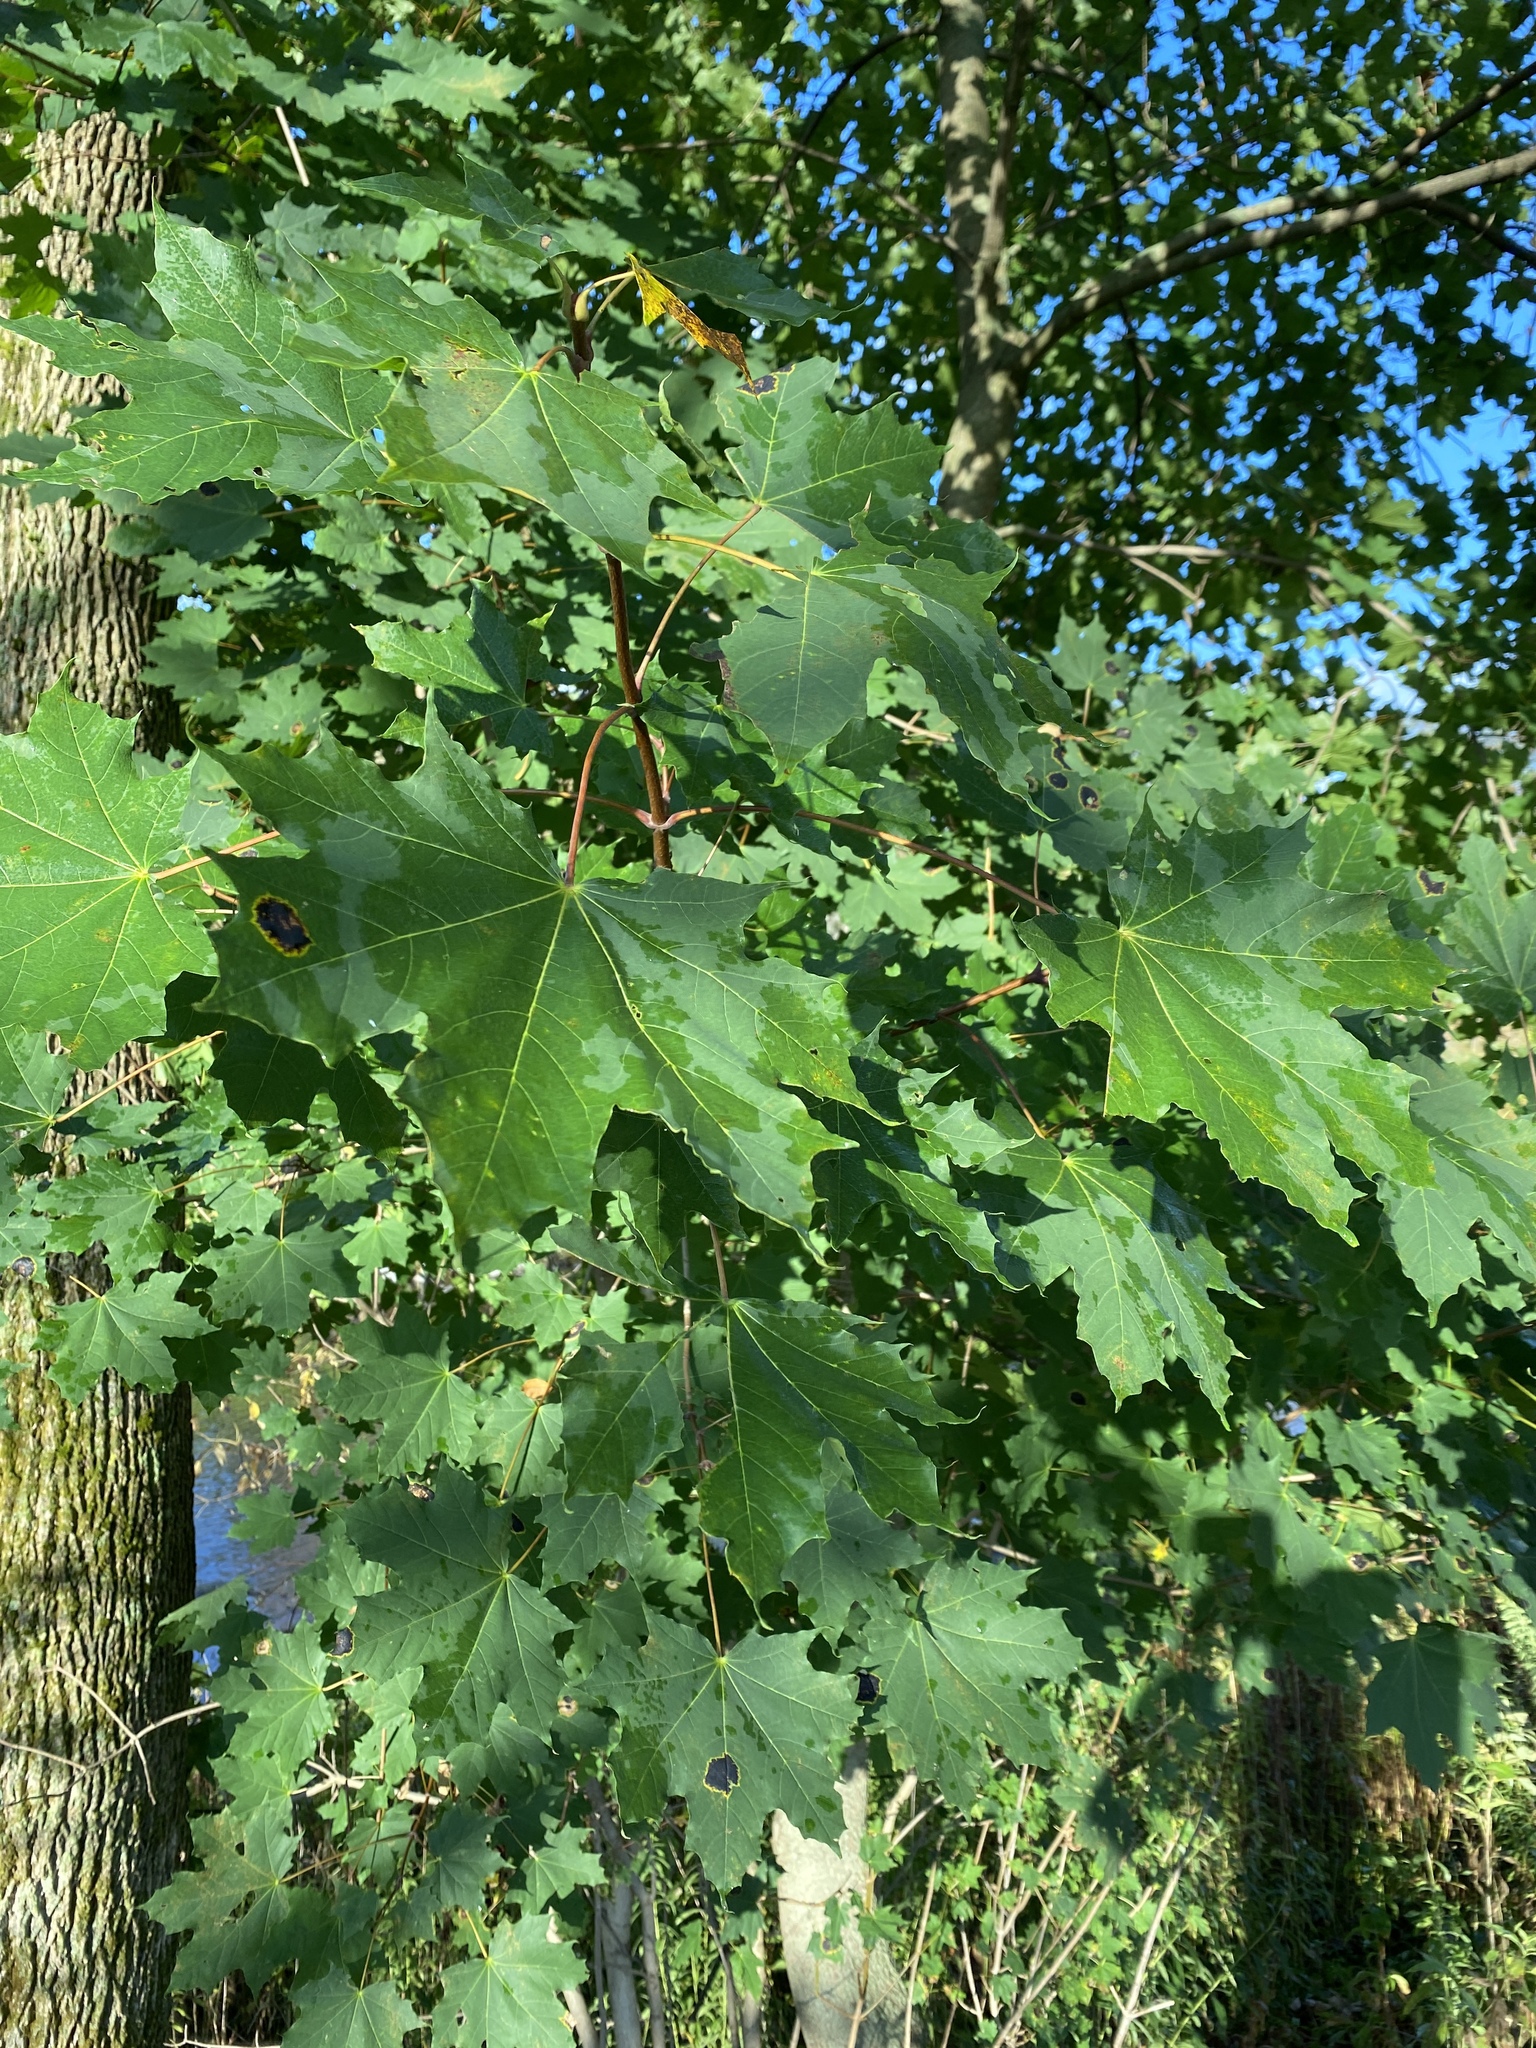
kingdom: Plantae
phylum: Tracheophyta
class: Magnoliopsida
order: Sapindales
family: Sapindaceae
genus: Acer
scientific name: Acer platanoides
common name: Norway maple
